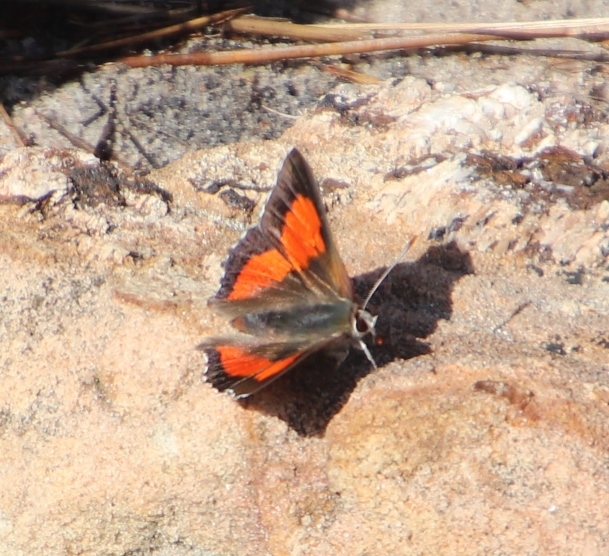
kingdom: Animalia
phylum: Arthropoda
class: Insecta
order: Lepidoptera
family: Lycaenidae
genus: Capys
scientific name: Capys alpheus
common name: Orange-banded protea butterfly
